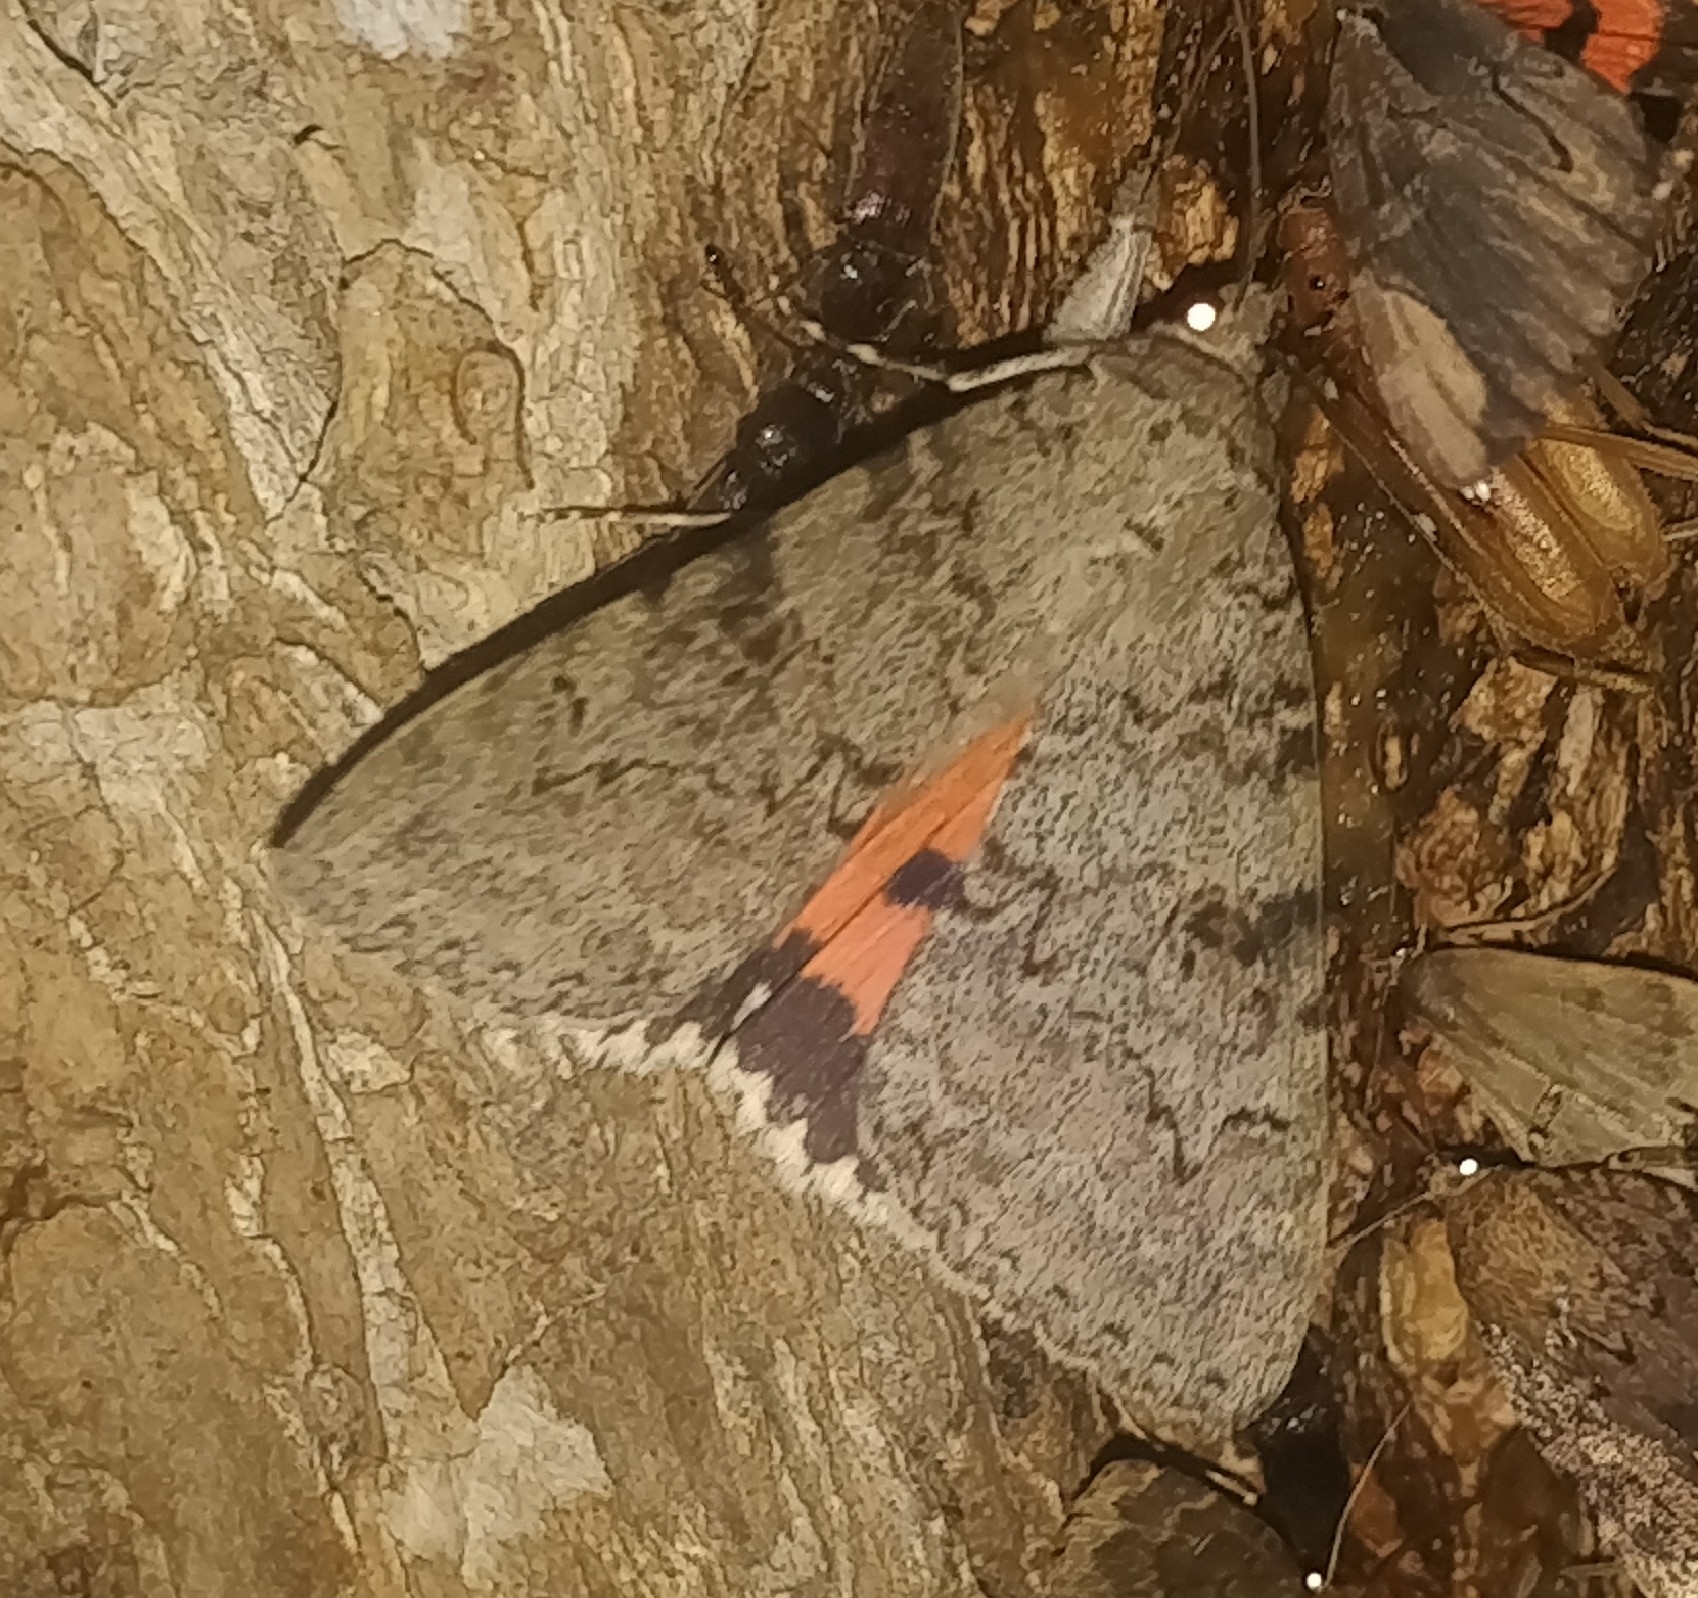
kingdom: Animalia
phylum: Arthropoda
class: Insecta
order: Lepidoptera
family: Erebidae
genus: Catocala
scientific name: Catocala luciana
